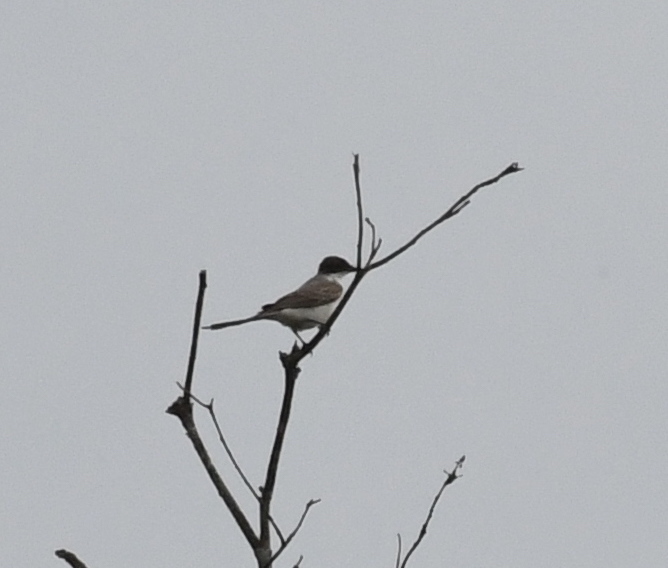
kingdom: Animalia
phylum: Chordata
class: Aves
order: Passeriformes
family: Tyrannidae
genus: Tyrannus
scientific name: Tyrannus savana
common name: Fork-tailed flycatcher
